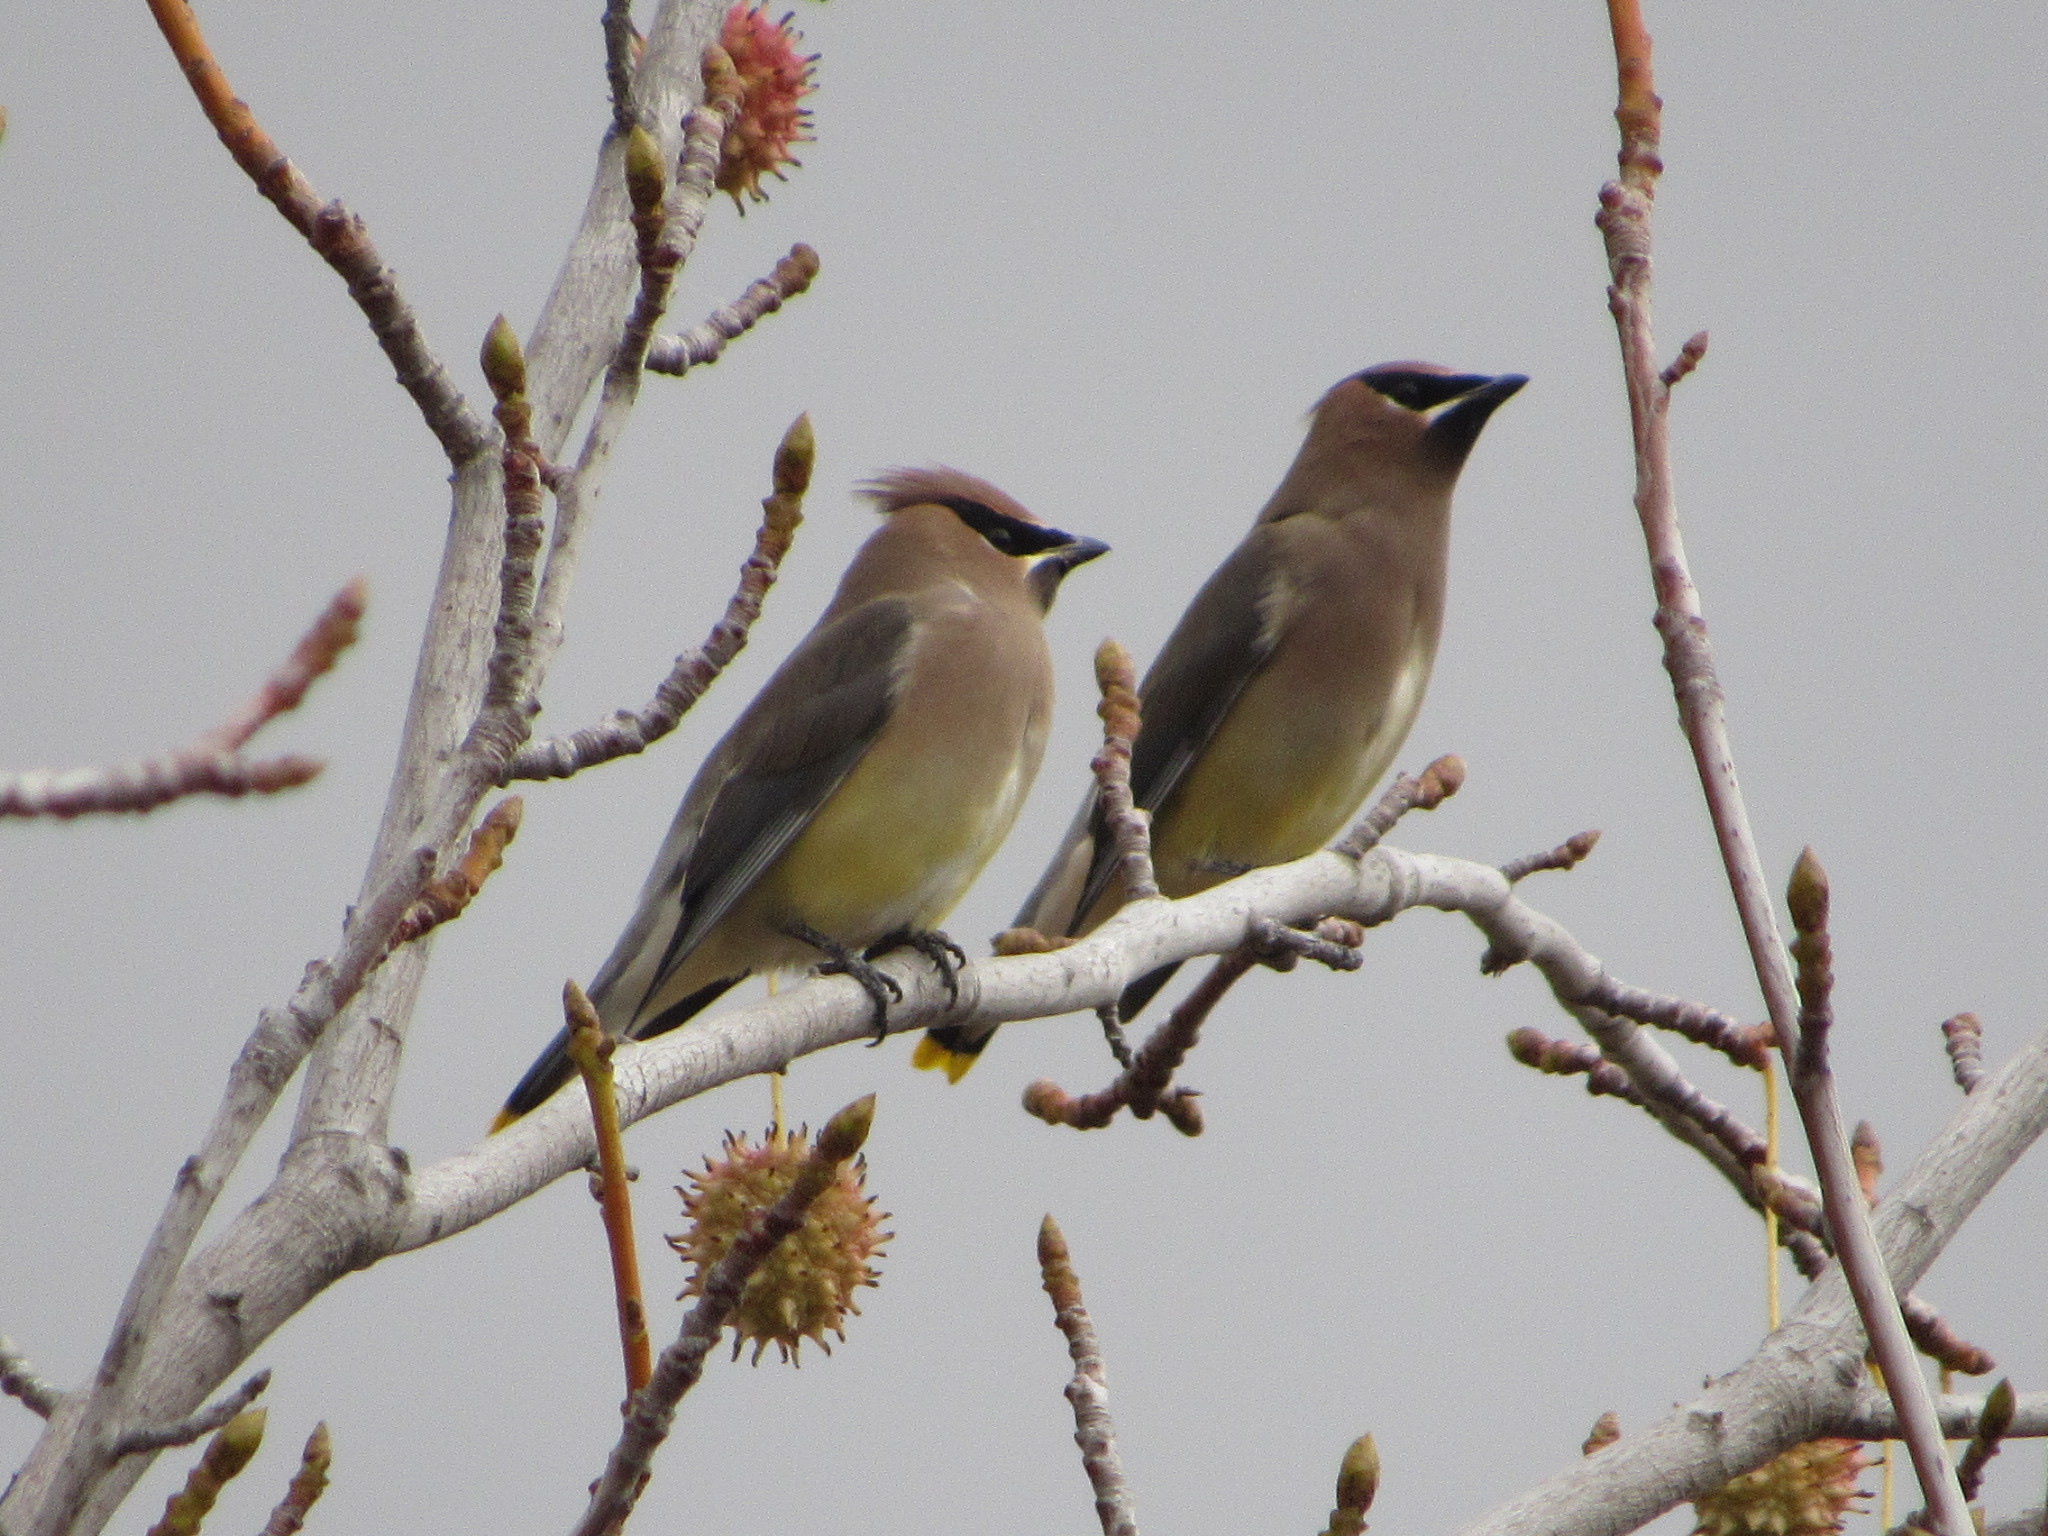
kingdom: Animalia
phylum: Chordata
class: Aves
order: Passeriformes
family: Bombycillidae
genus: Bombycilla
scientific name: Bombycilla cedrorum
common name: Cedar waxwing
